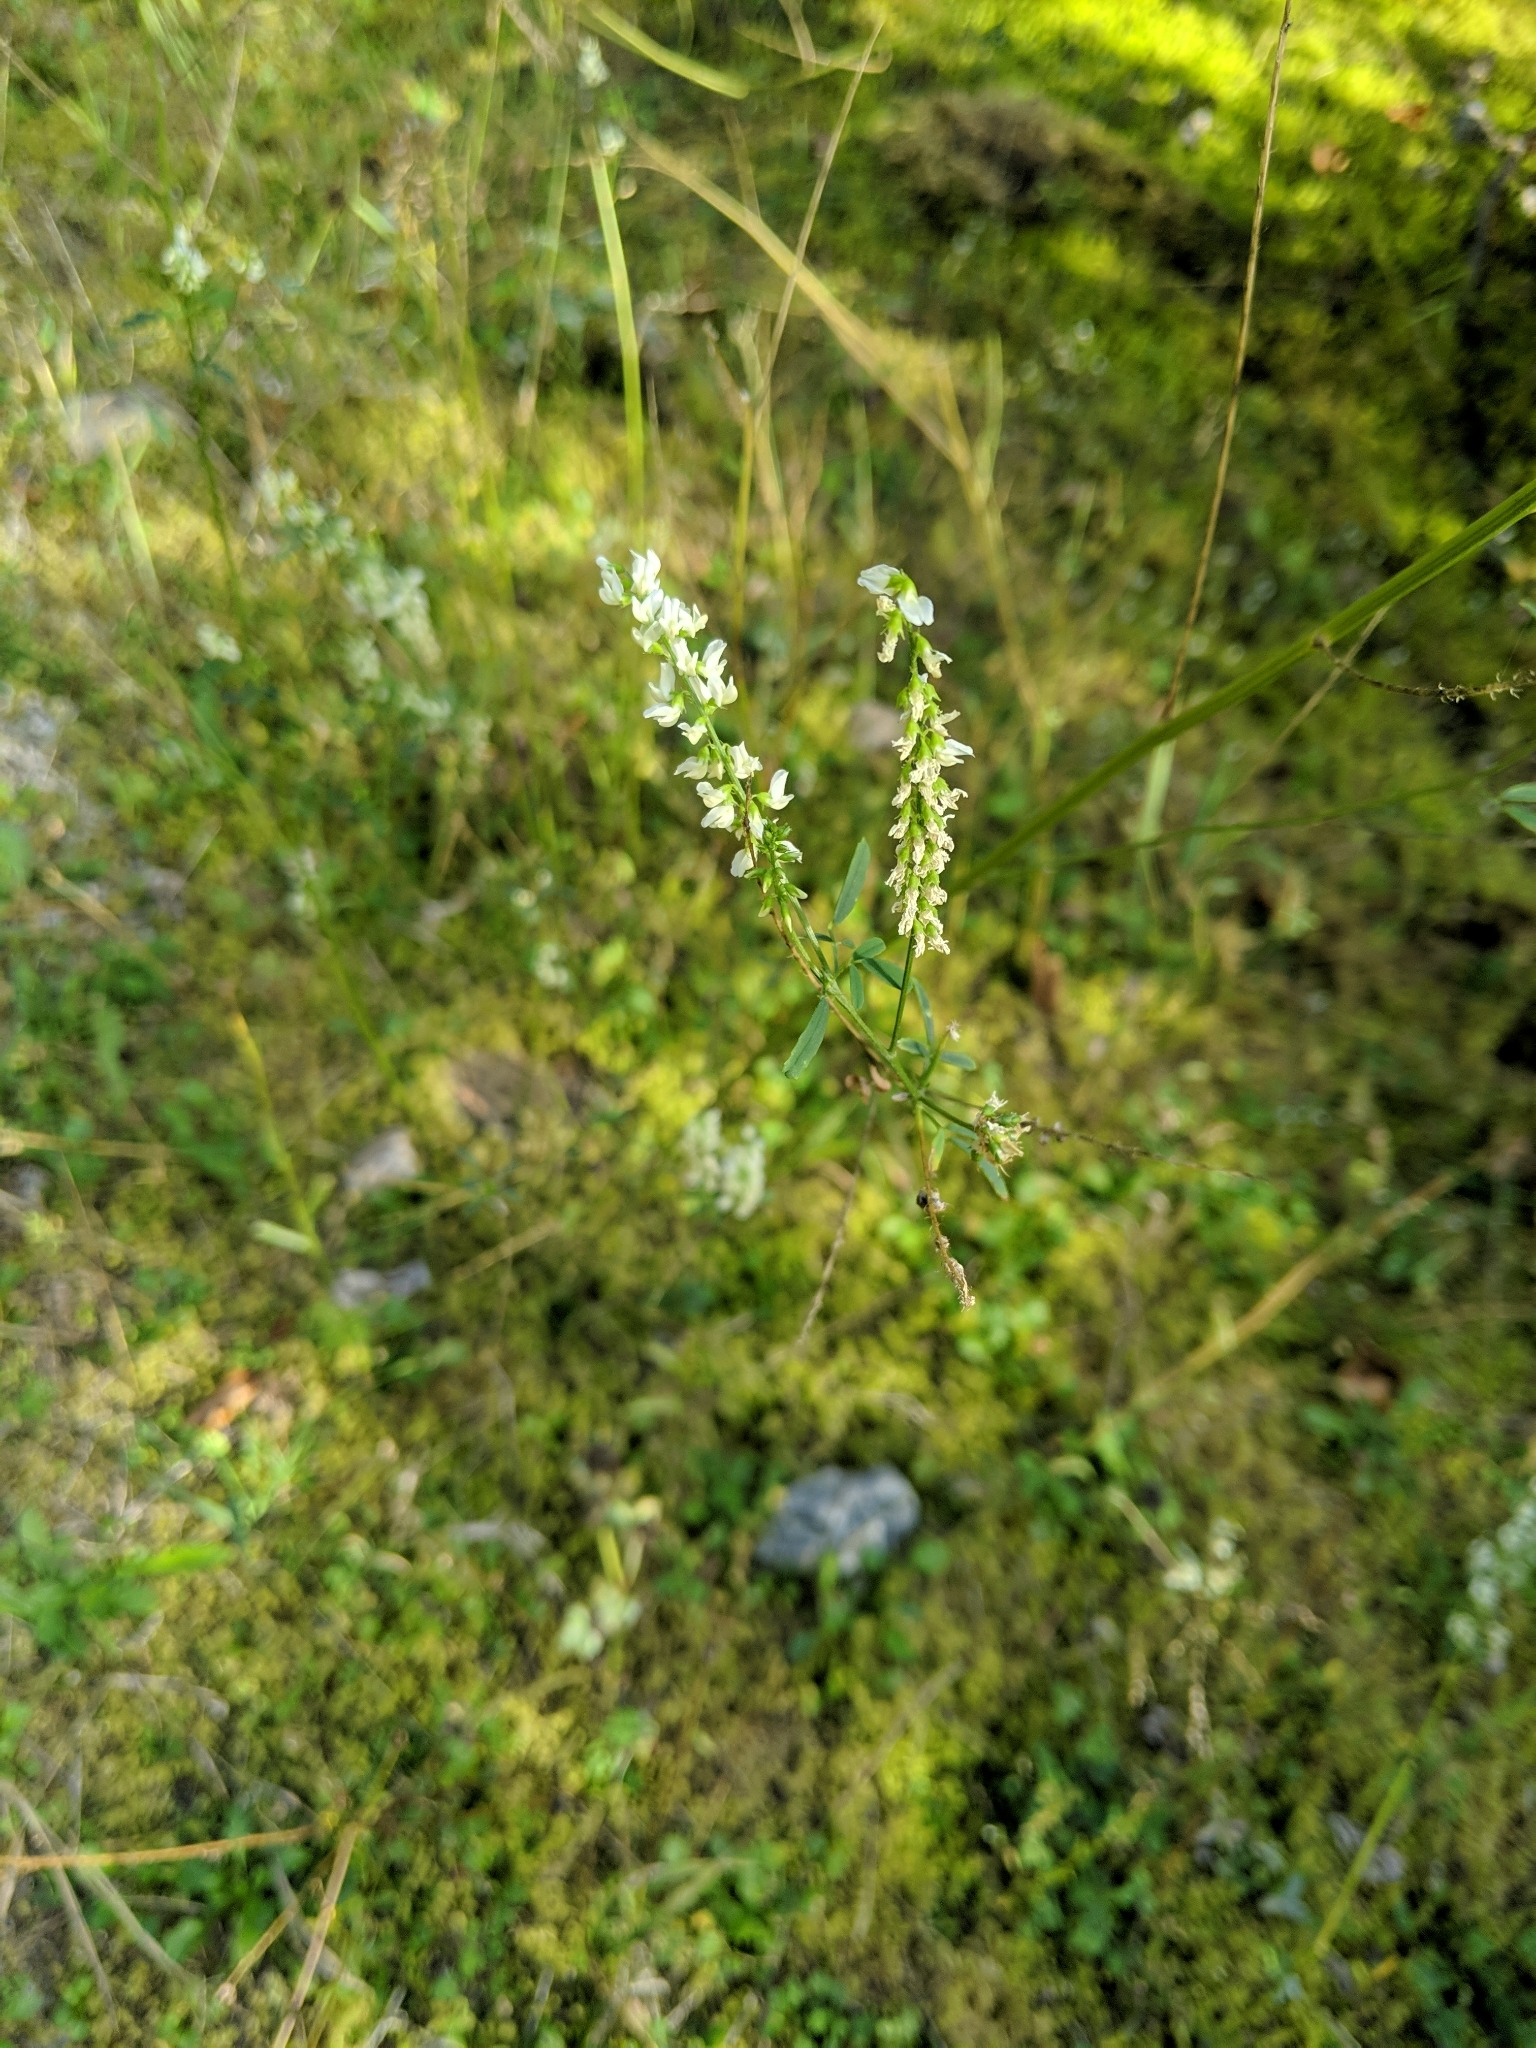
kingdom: Plantae
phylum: Tracheophyta
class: Magnoliopsida
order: Fabales
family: Fabaceae
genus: Melilotus
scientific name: Melilotus albus
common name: White melilot
